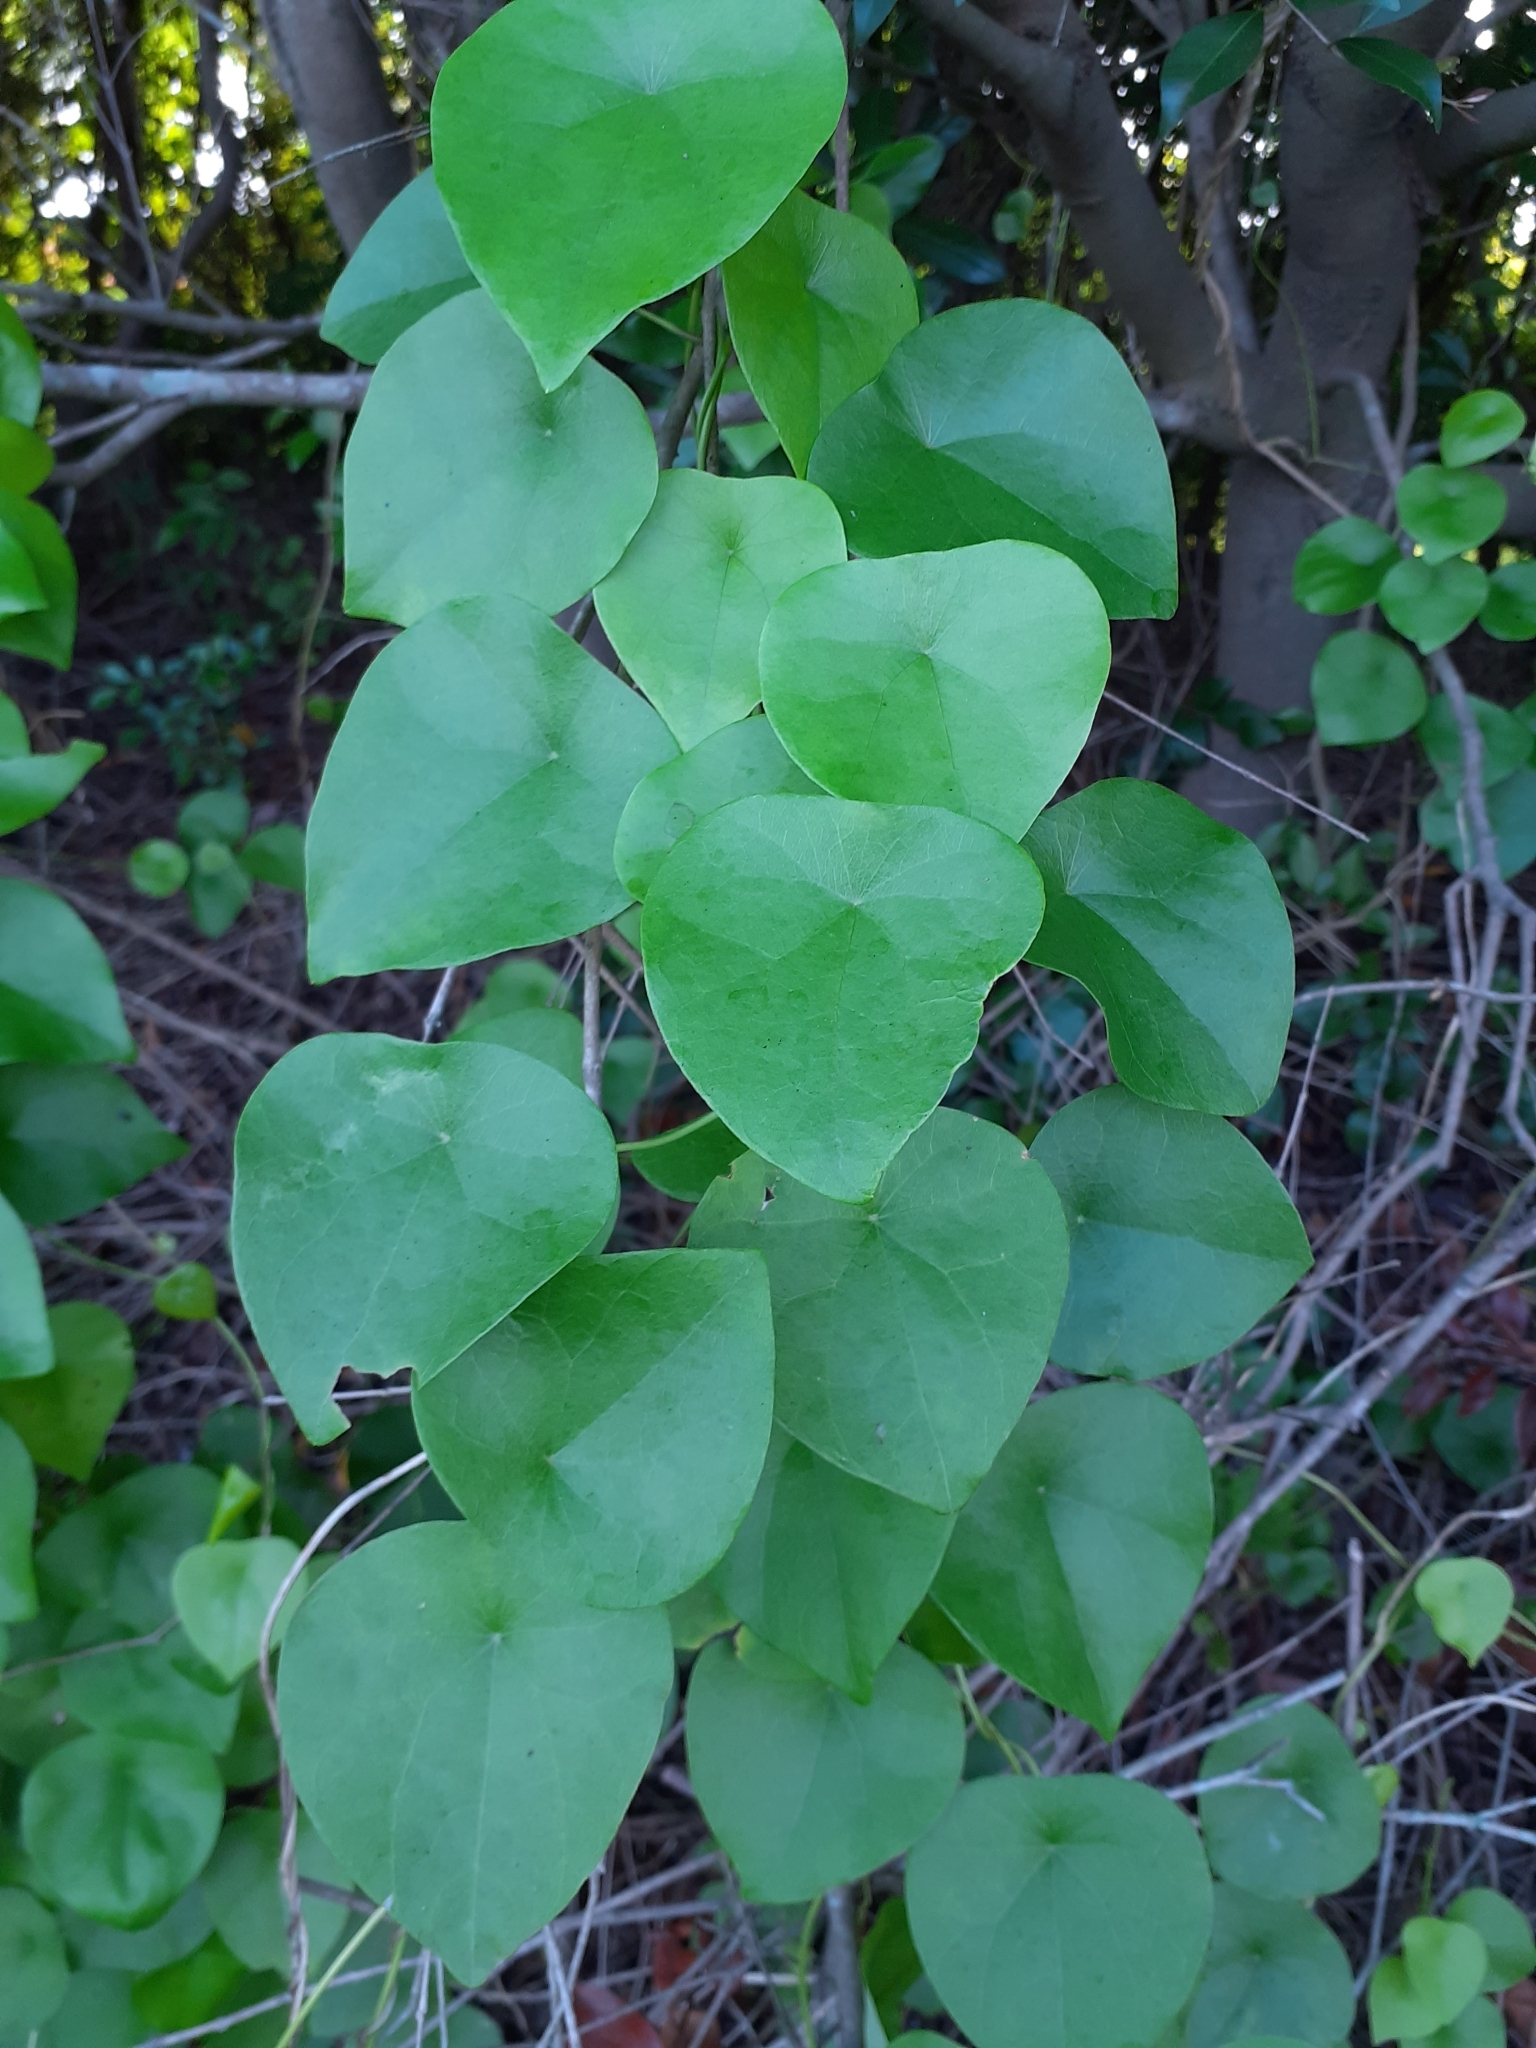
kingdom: Plantae
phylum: Tracheophyta
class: Magnoliopsida
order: Ranunculales
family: Menispermaceae
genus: Stephania
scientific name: Stephania japonica
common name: Snake vine
